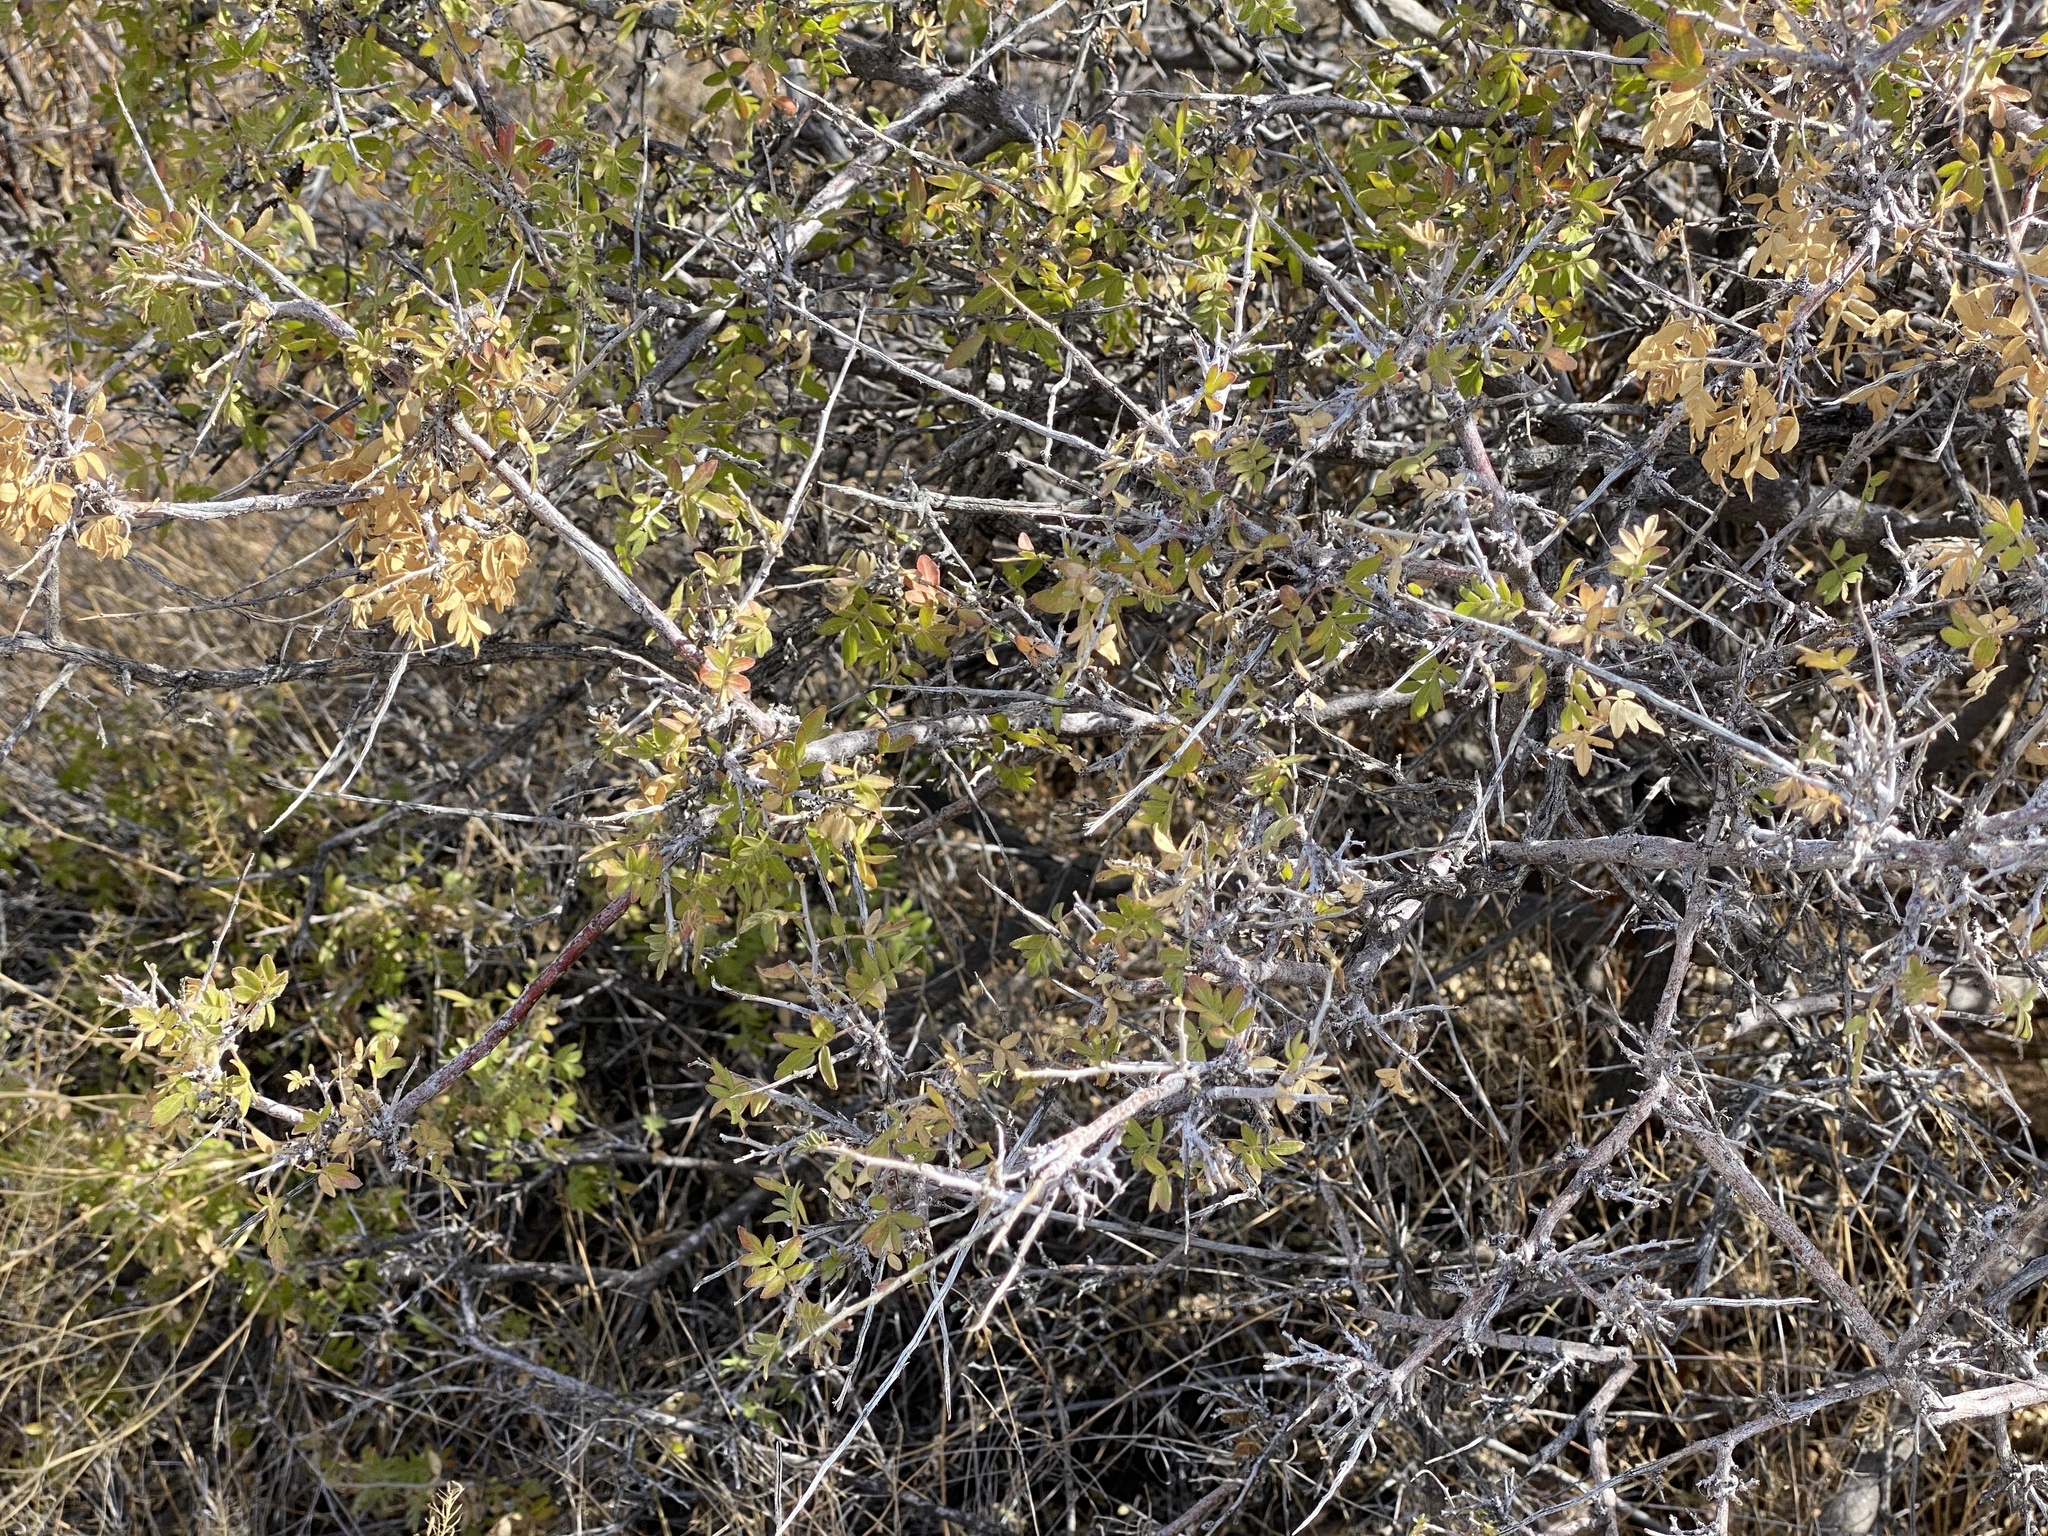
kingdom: Plantae
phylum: Tracheophyta
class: Magnoliopsida
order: Sapindales
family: Anacardiaceae
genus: Rhus
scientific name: Rhus microphylla
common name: Desert sumac
